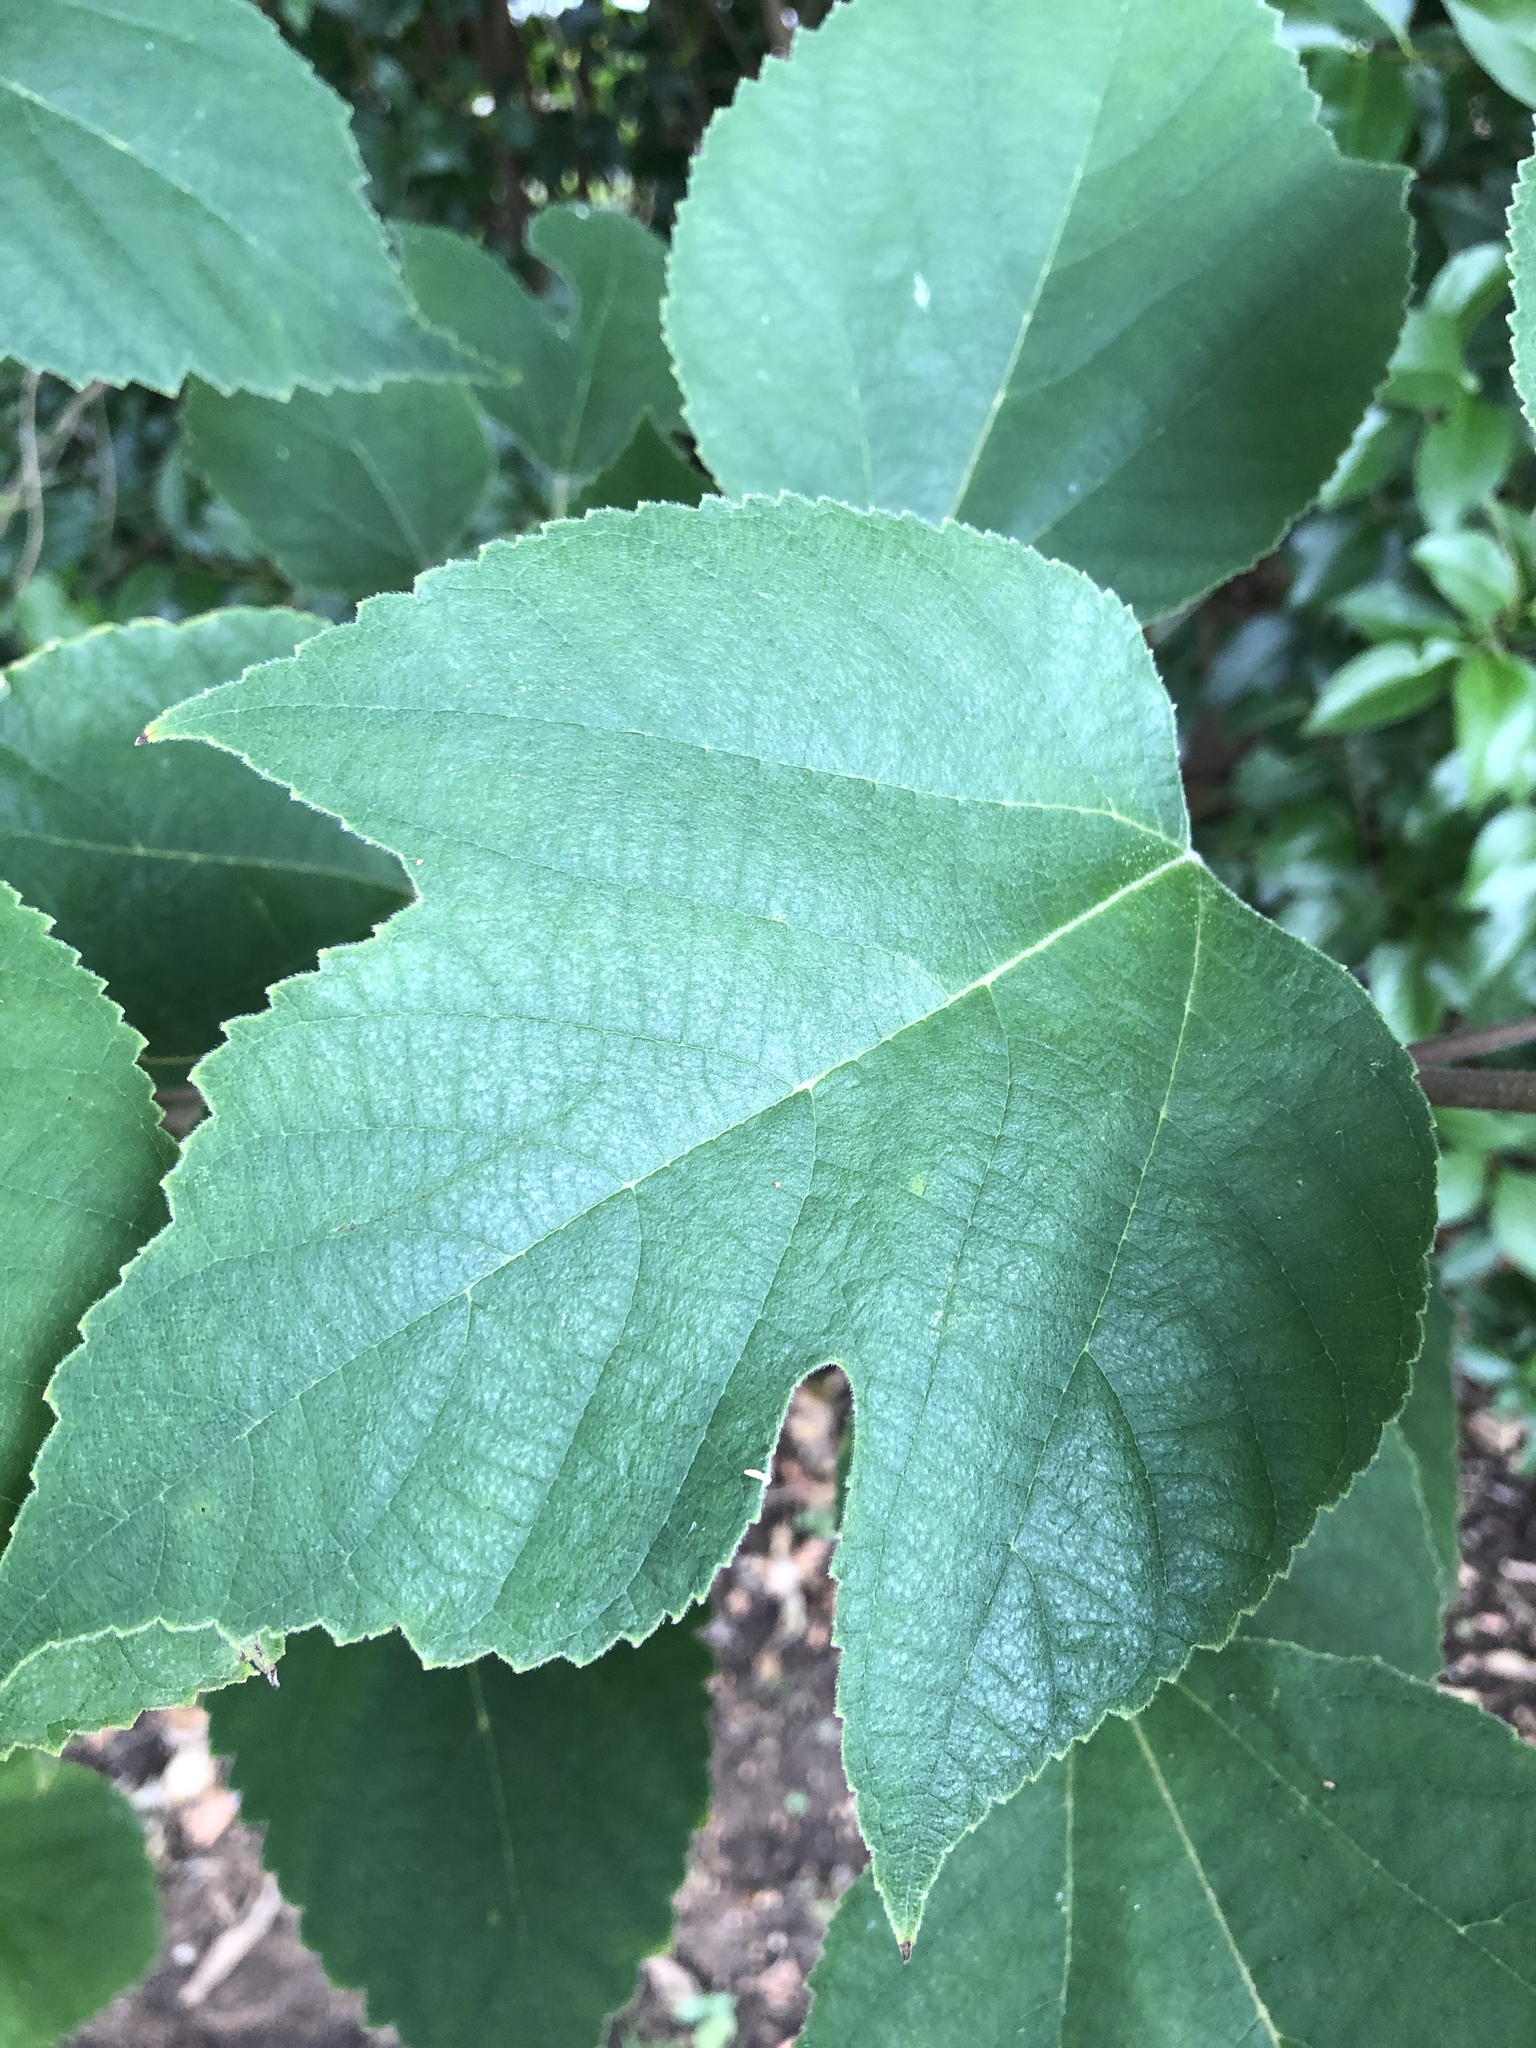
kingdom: Plantae
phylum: Tracheophyta
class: Magnoliopsida
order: Rosales
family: Moraceae
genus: Broussonetia
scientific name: Broussonetia papyrifera
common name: Paper mulberry
